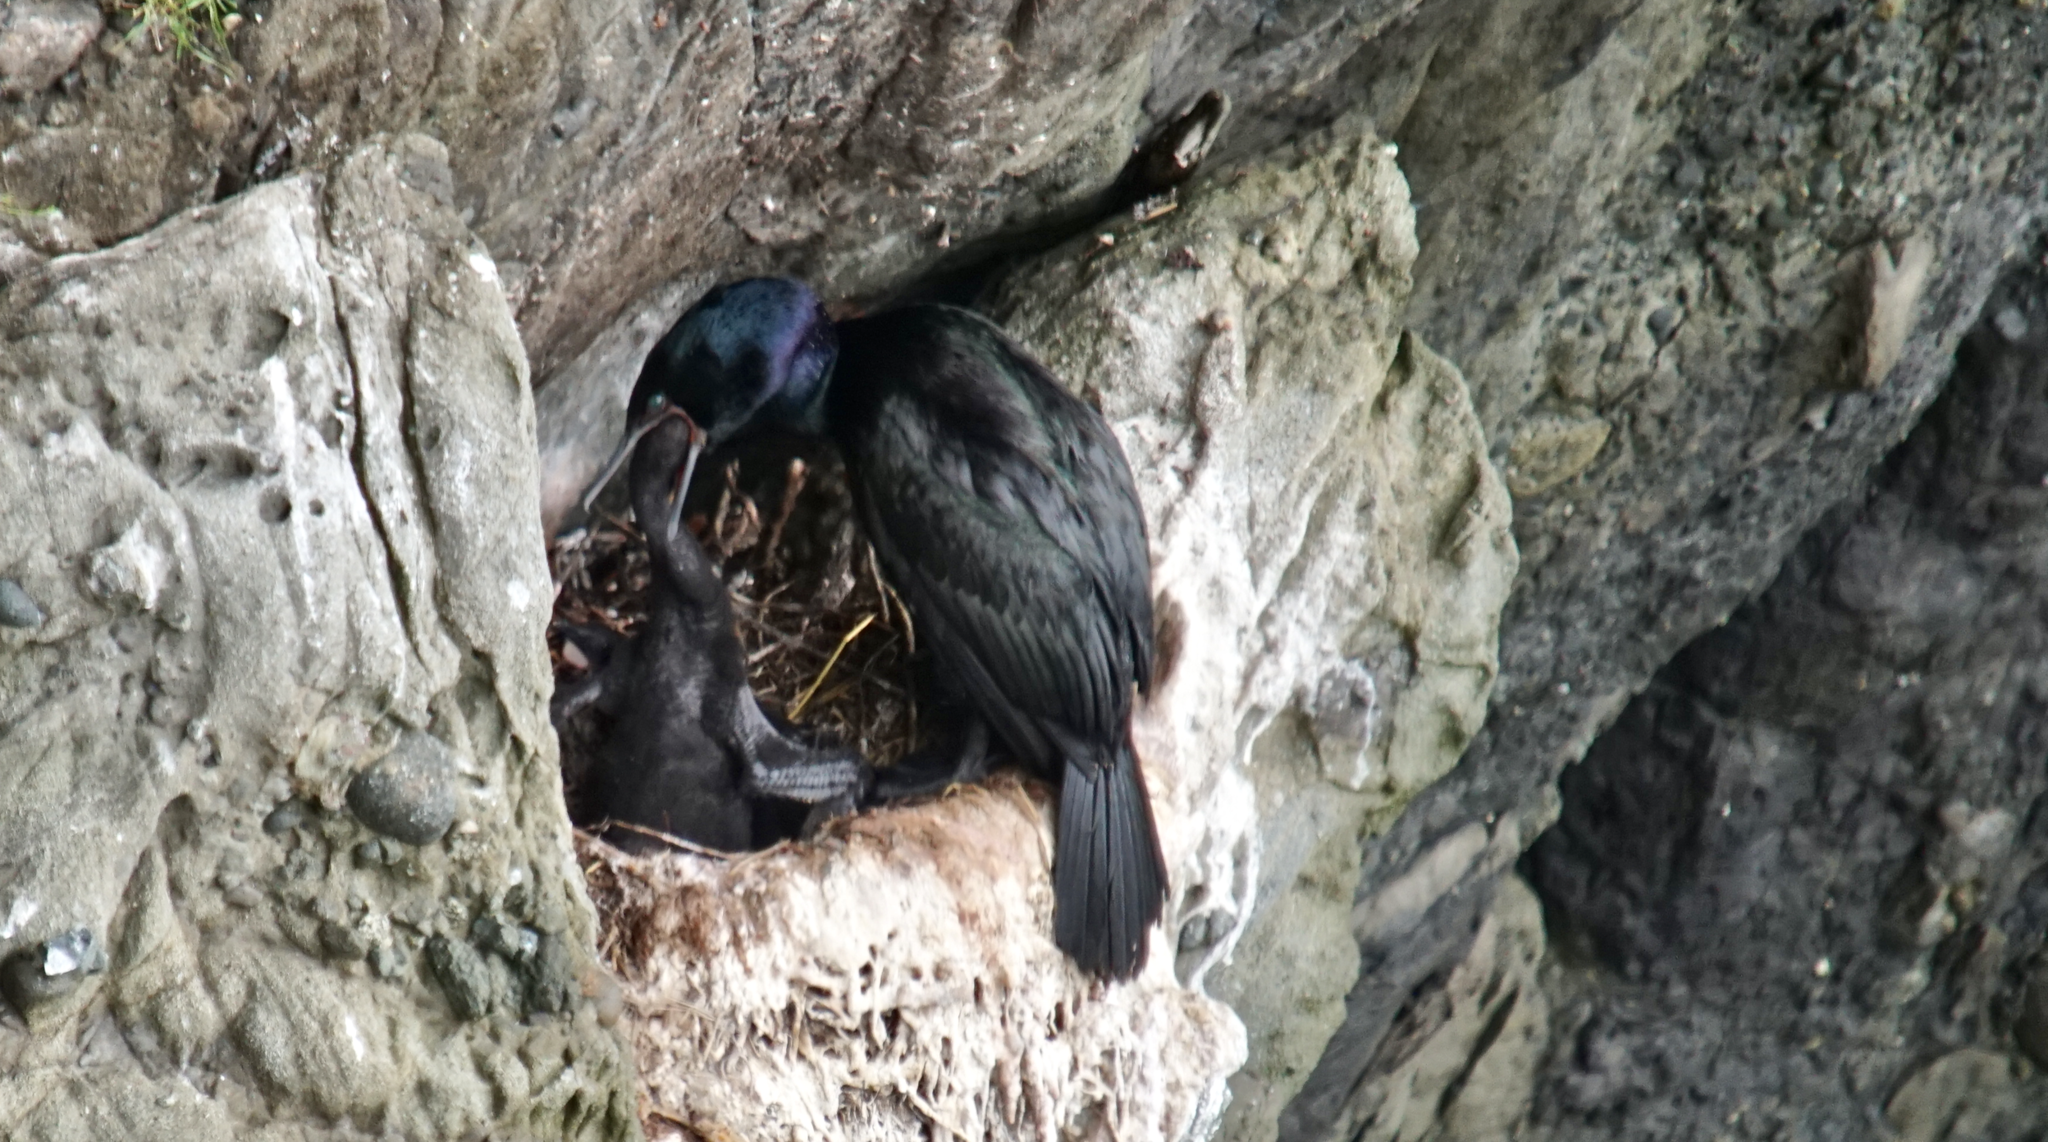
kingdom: Animalia
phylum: Chordata
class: Aves
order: Suliformes
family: Phalacrocoracidae
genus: Phalacrocorax
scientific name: Phalacrocorax pelagicus
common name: Pelagic cormorant
